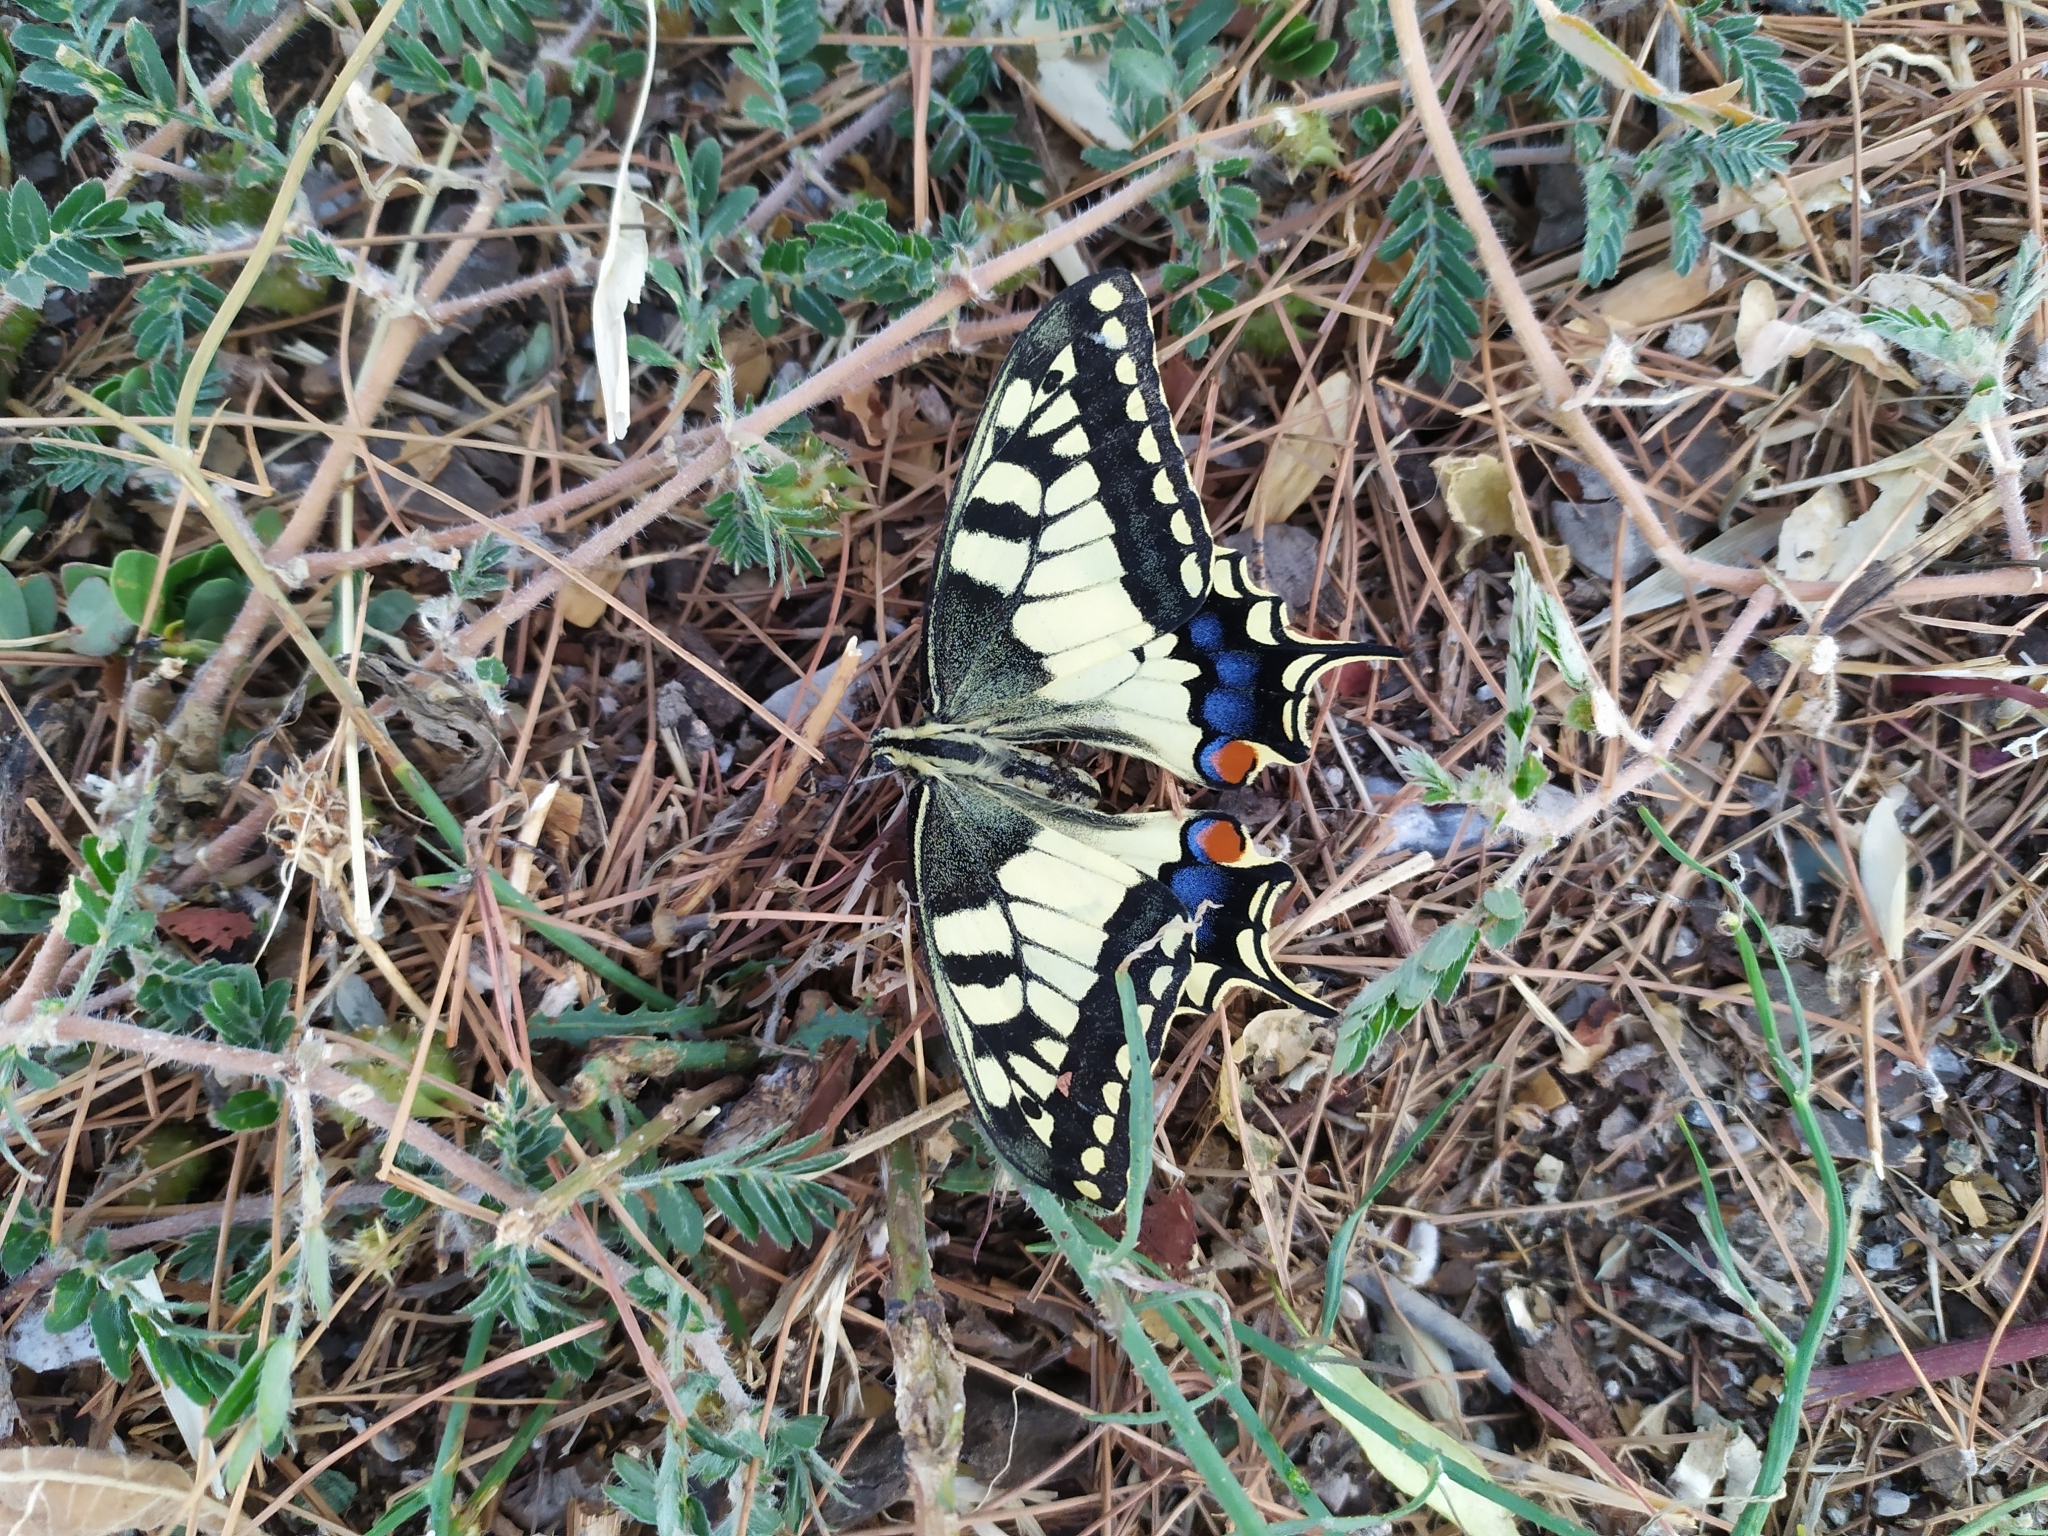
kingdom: Animalia
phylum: Arthropoda
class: Insecta
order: Lepidoptera
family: Papilionidae
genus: Papilio
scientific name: Papilio machaon
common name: Swallowtail
